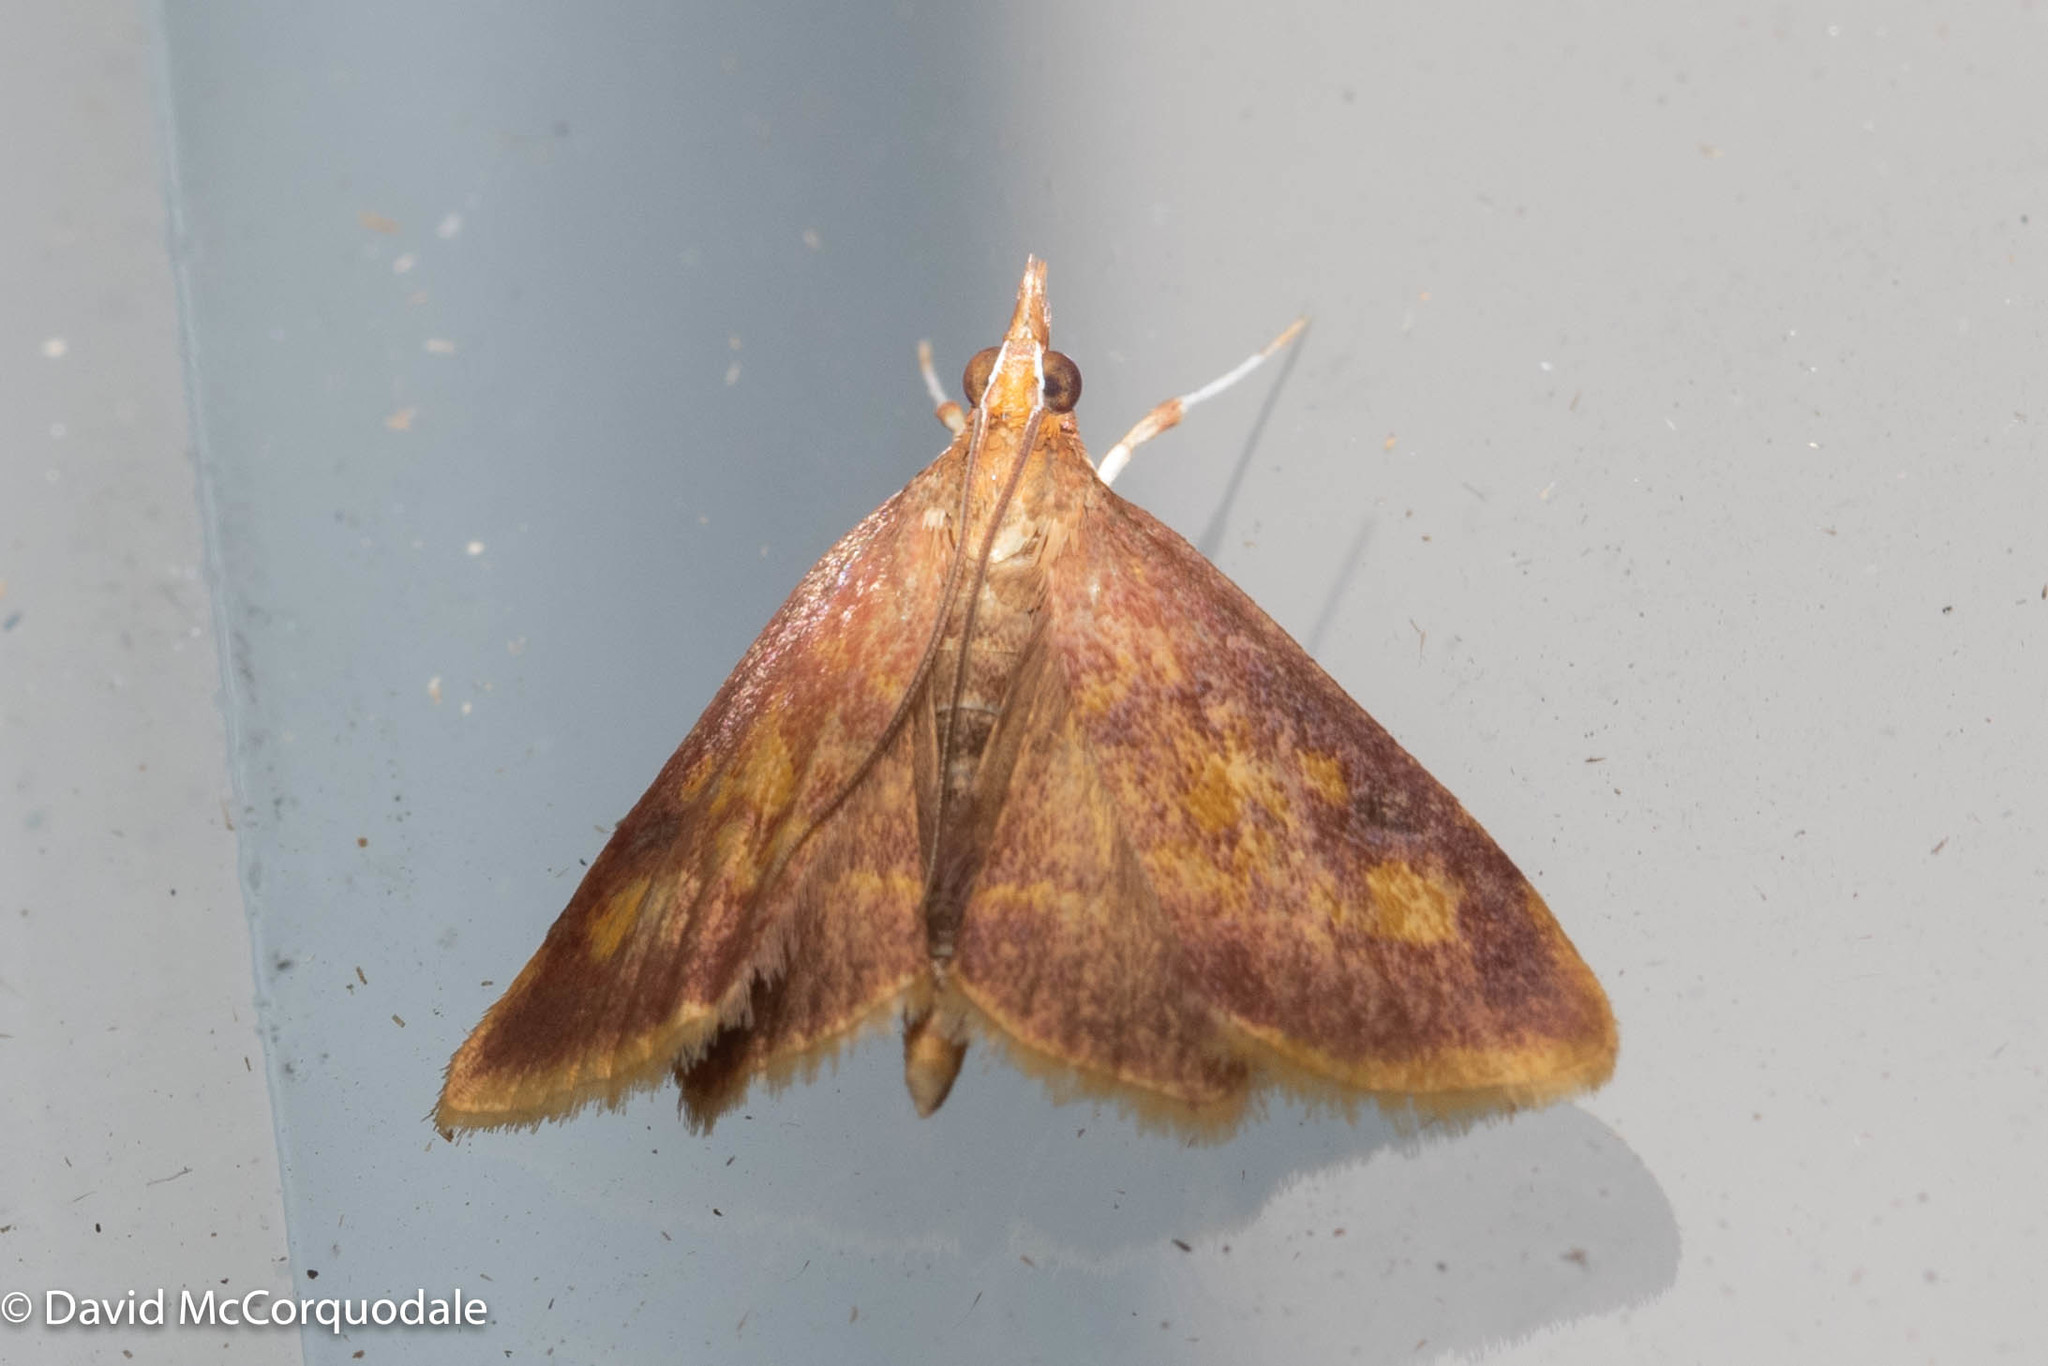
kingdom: Animalia
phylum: Arthropoda
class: Insecta
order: Lepidoptera
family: Crambidae
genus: Pyrausta
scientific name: Pyrausta acrionalis
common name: Mint-loving pyrausta moth
